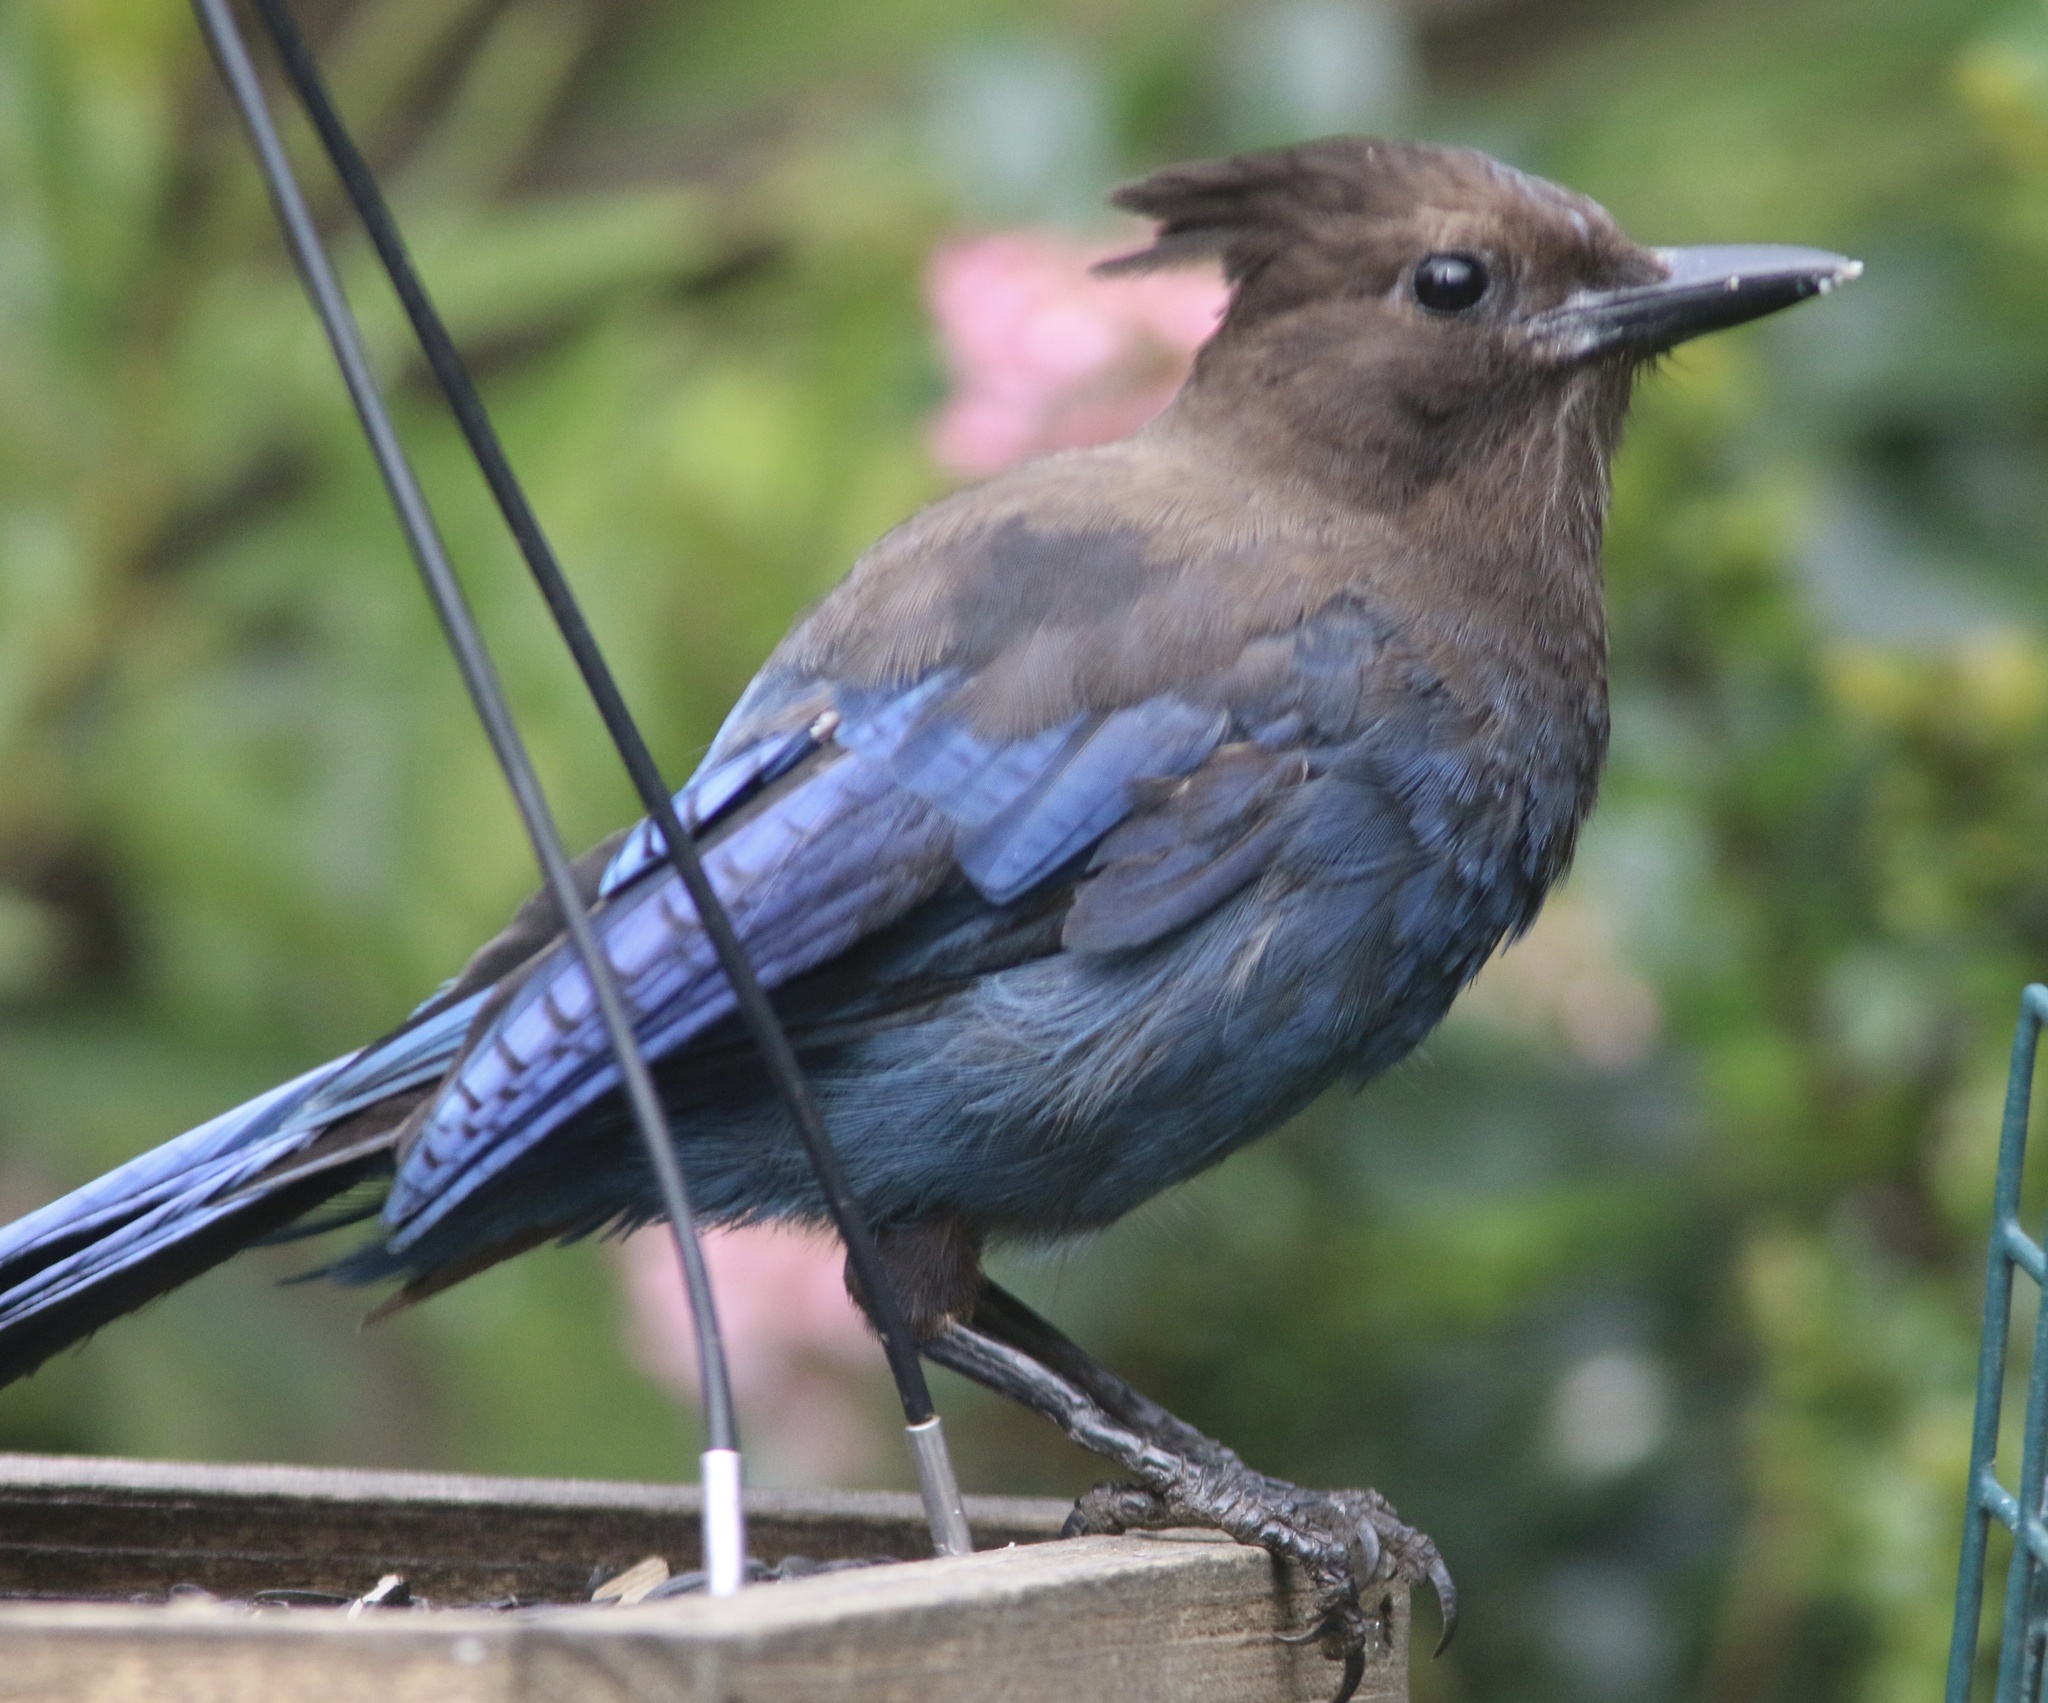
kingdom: Animalia
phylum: Chordata
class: Aves
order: Passeriformes
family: Corvidae
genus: Cyanocitta
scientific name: Cyanocitta stelleri
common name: Steller's jay
